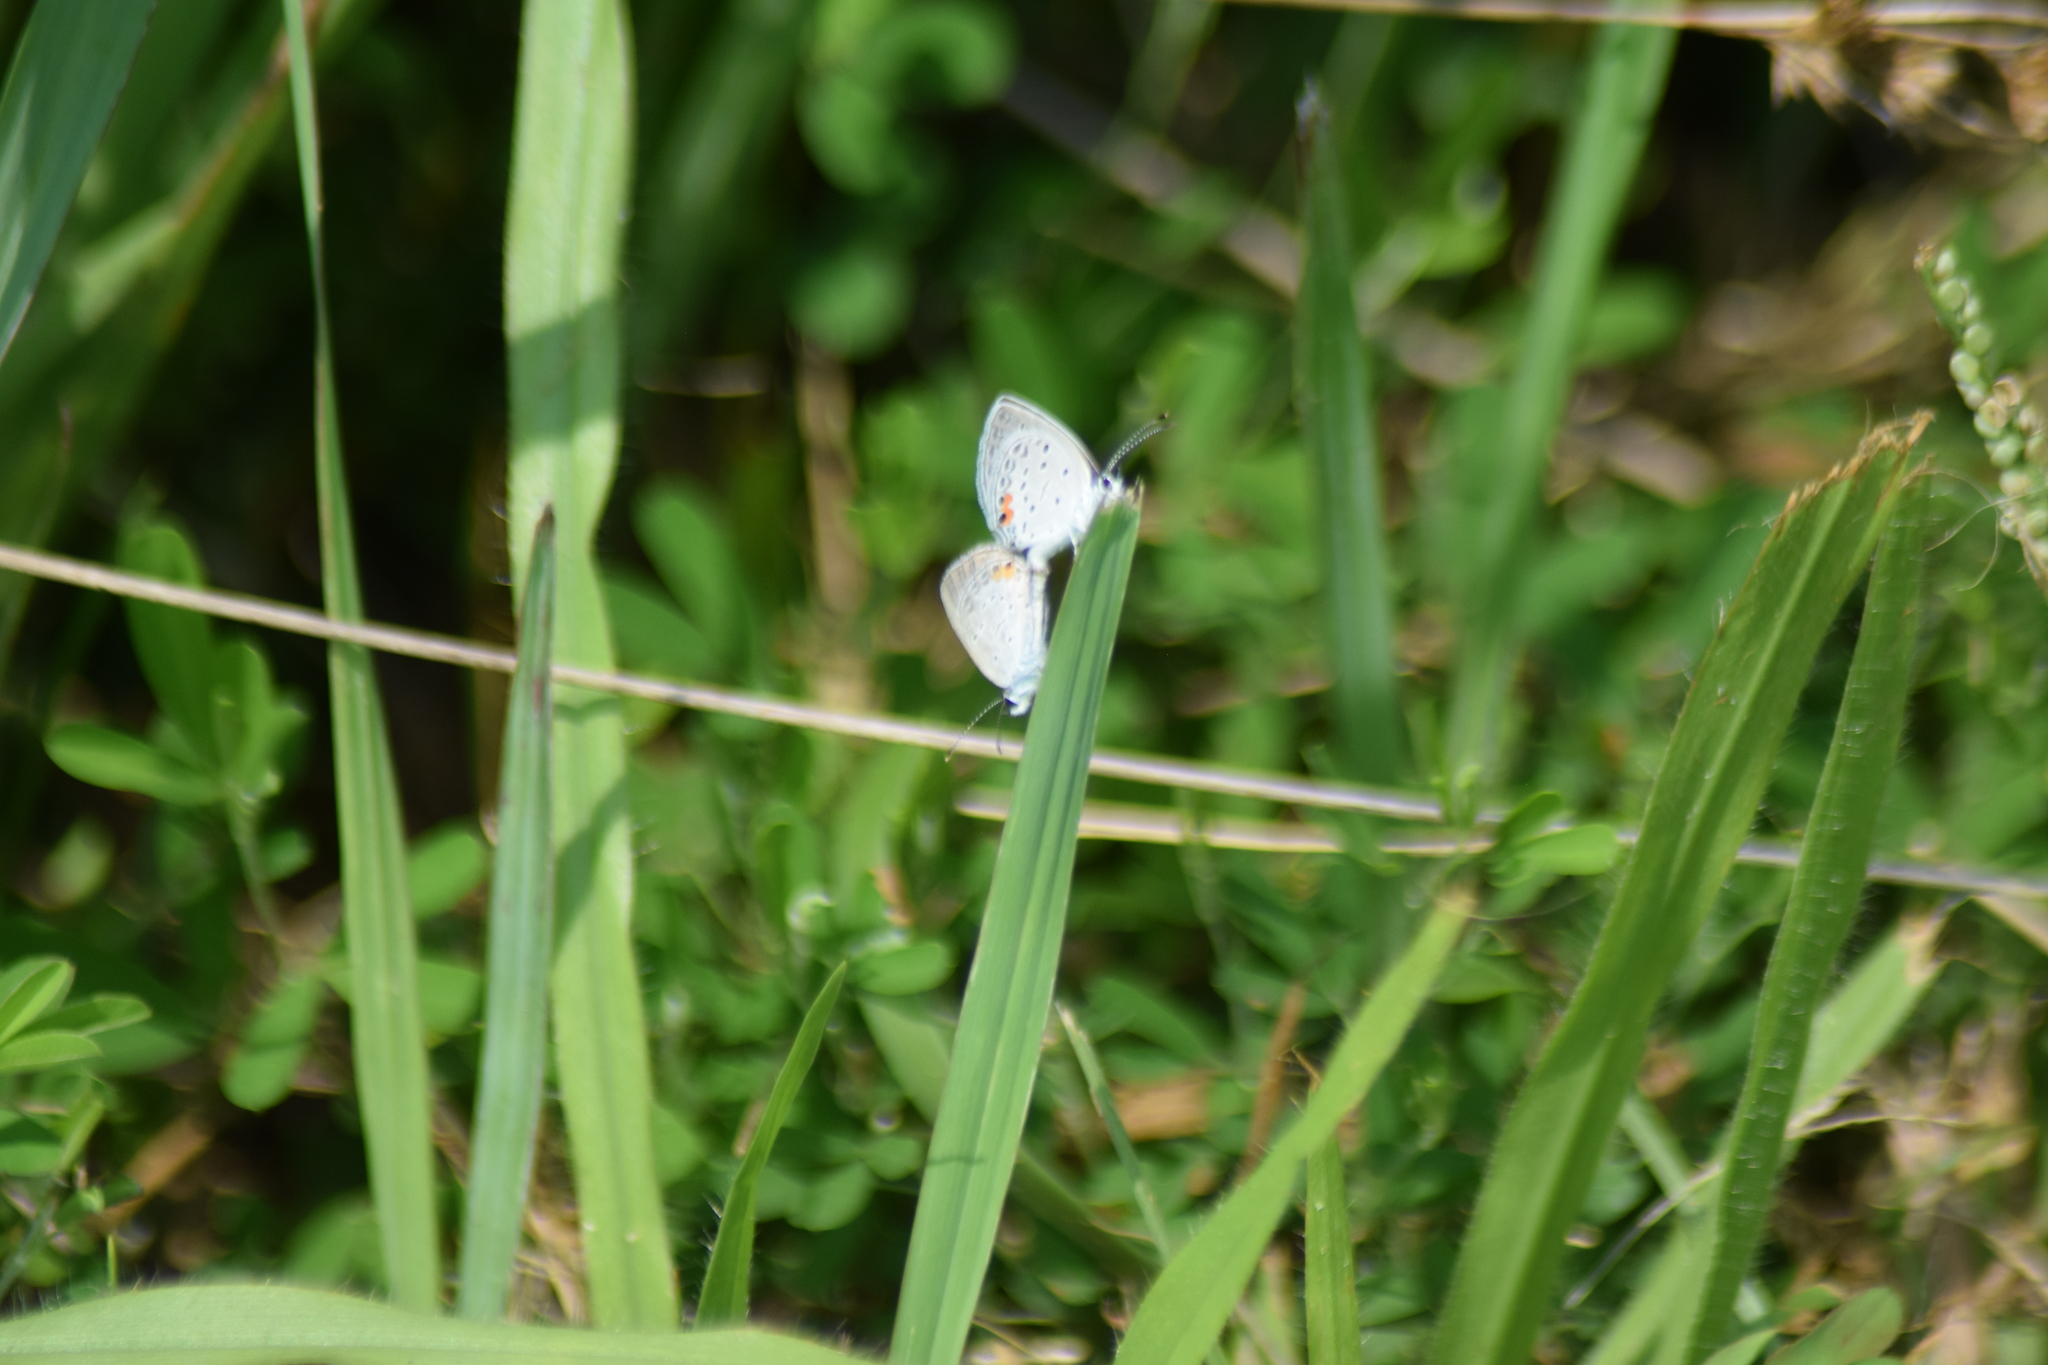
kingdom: Animalia
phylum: Arthropoda
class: Insecta
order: Lepidoptera
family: Lycaenidae
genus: Elkalyce
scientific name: Elkalyce comyntas
